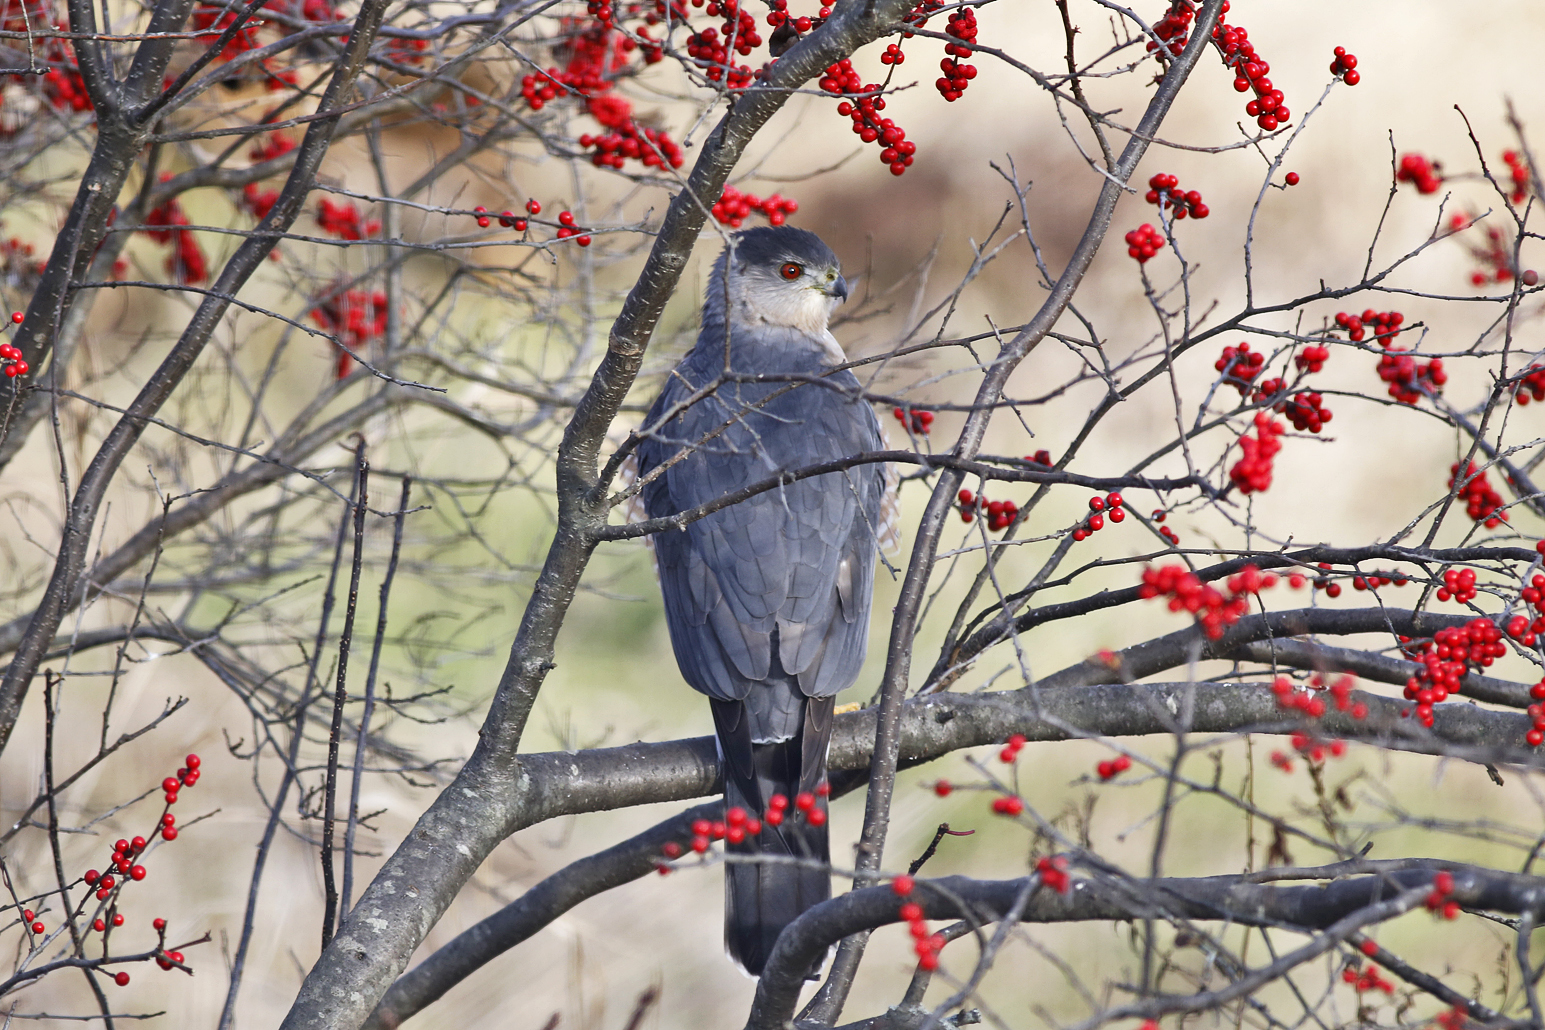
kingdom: Animalia
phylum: Chordata
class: Aves
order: Accipitriformes
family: Accipitridae
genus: Accipiter
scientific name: Accipiter cooperii
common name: Cooper's hawk
